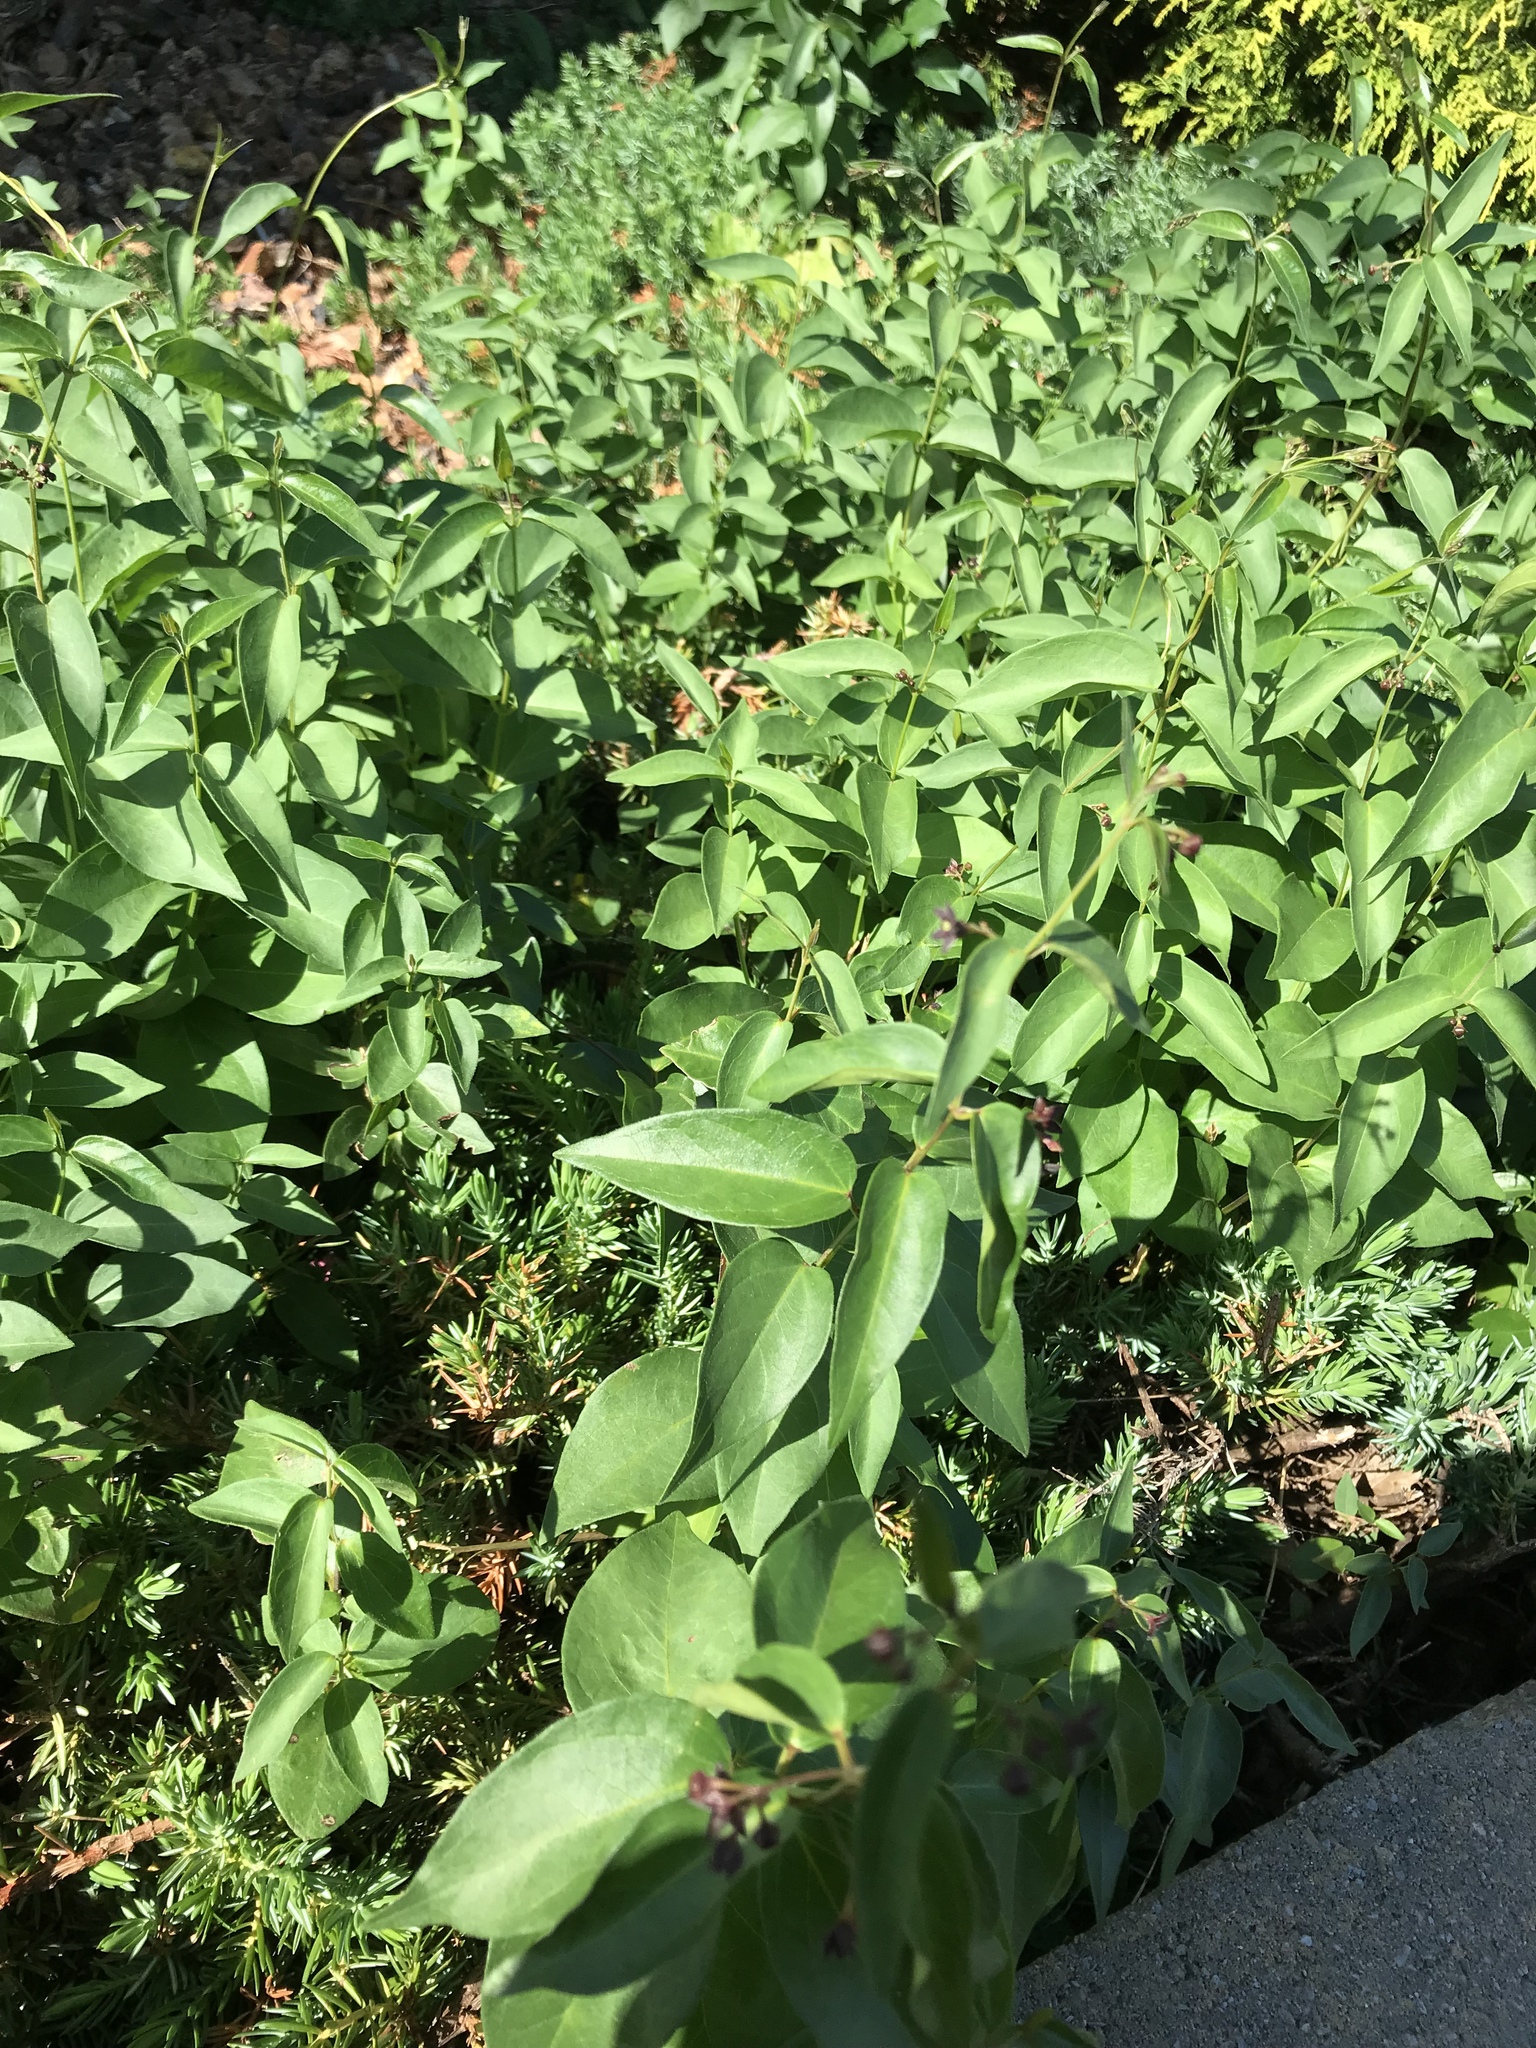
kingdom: Plantae
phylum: Tracheophyta
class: Magnoliopsida
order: Gentianales
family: Apocynaceae
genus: Vincetoxicum
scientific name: Vincetoxicum nigrum
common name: Black swallow-wort
